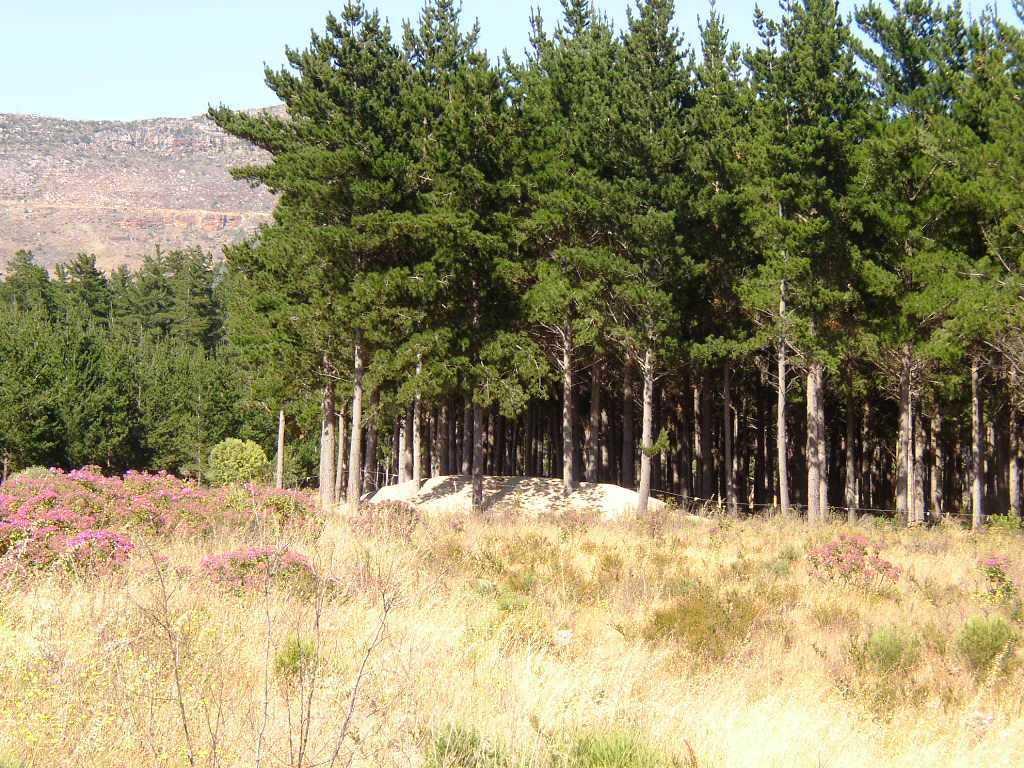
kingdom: Plantae
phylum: Tracheophyta
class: Liliopsida
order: Poales
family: Poaceae
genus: Briza
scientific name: Briza maxima
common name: Big quakinggrass
